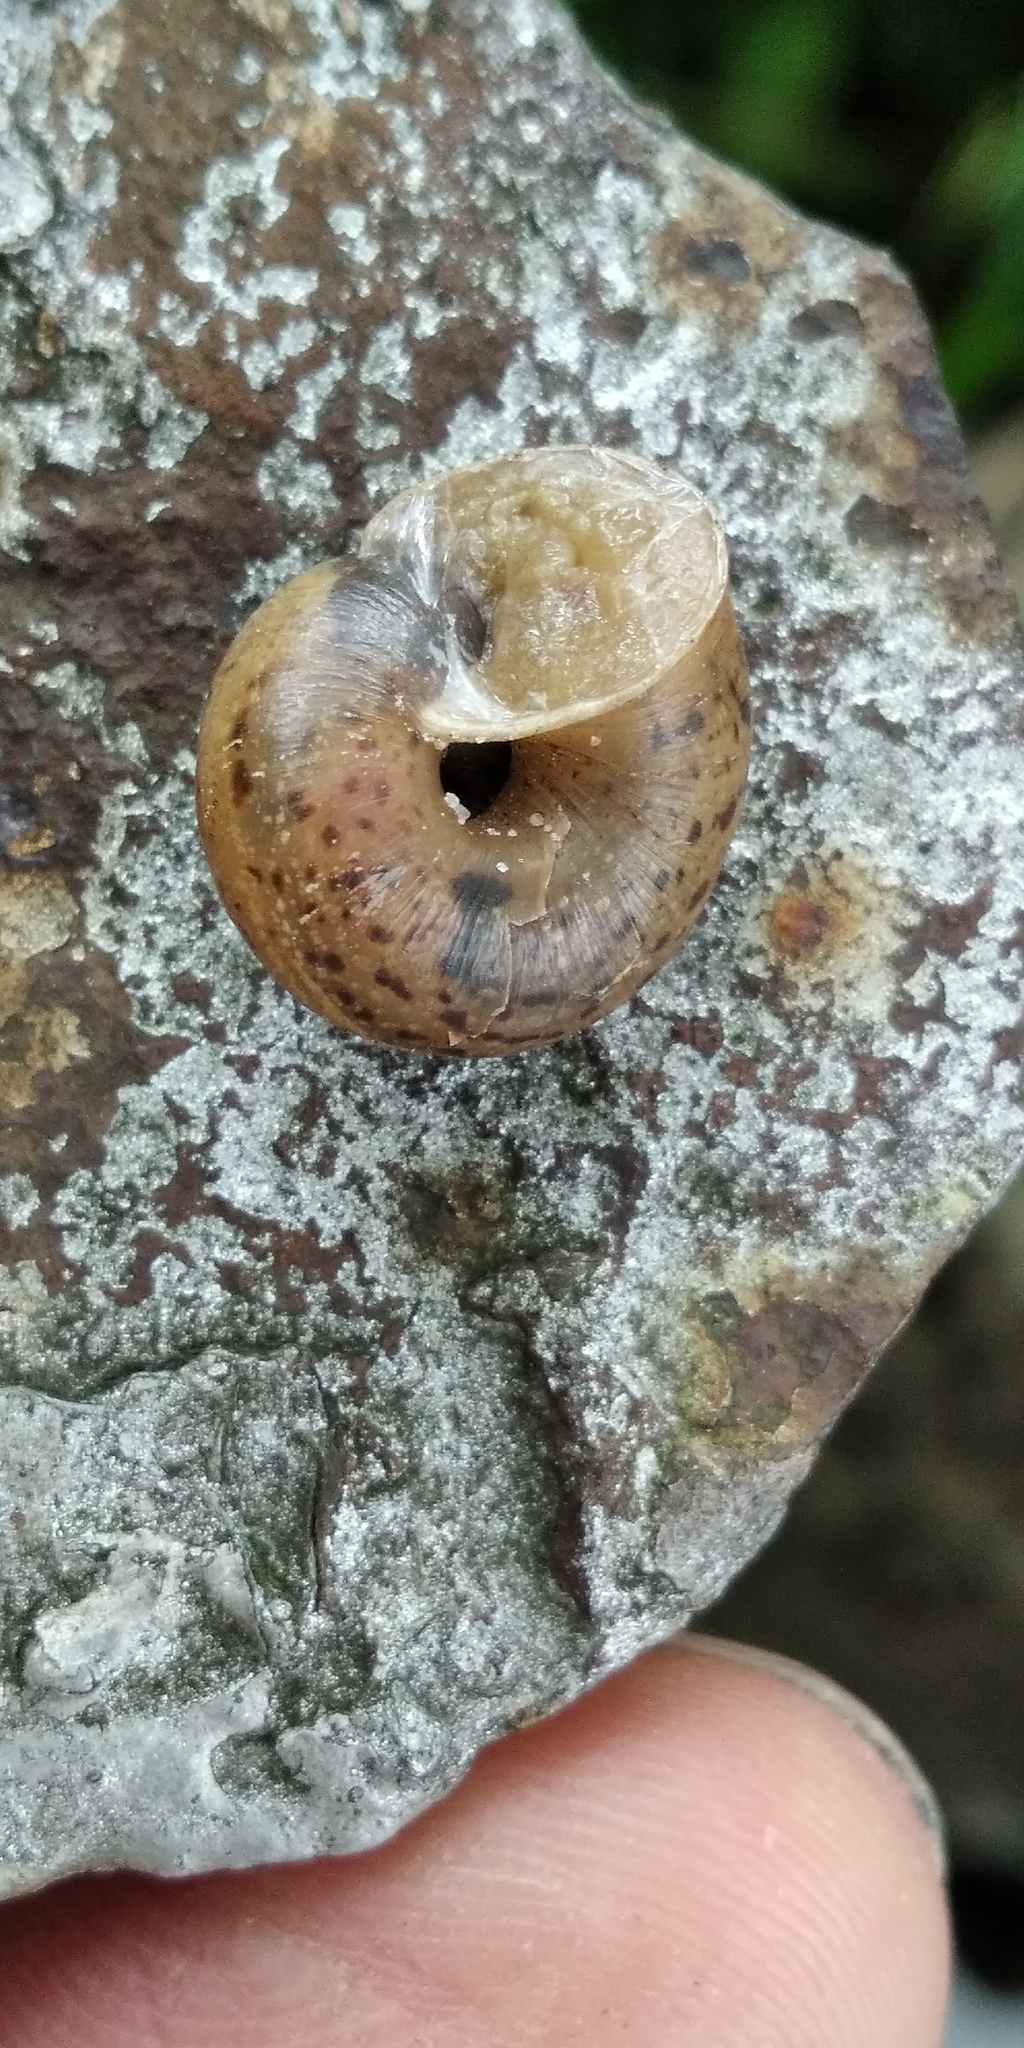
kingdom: Animalia
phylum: Mollusca
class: Gastropoda
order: Stylommatophora
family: Hygromiidae
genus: Euomphalia
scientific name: Euomphalia strigella
